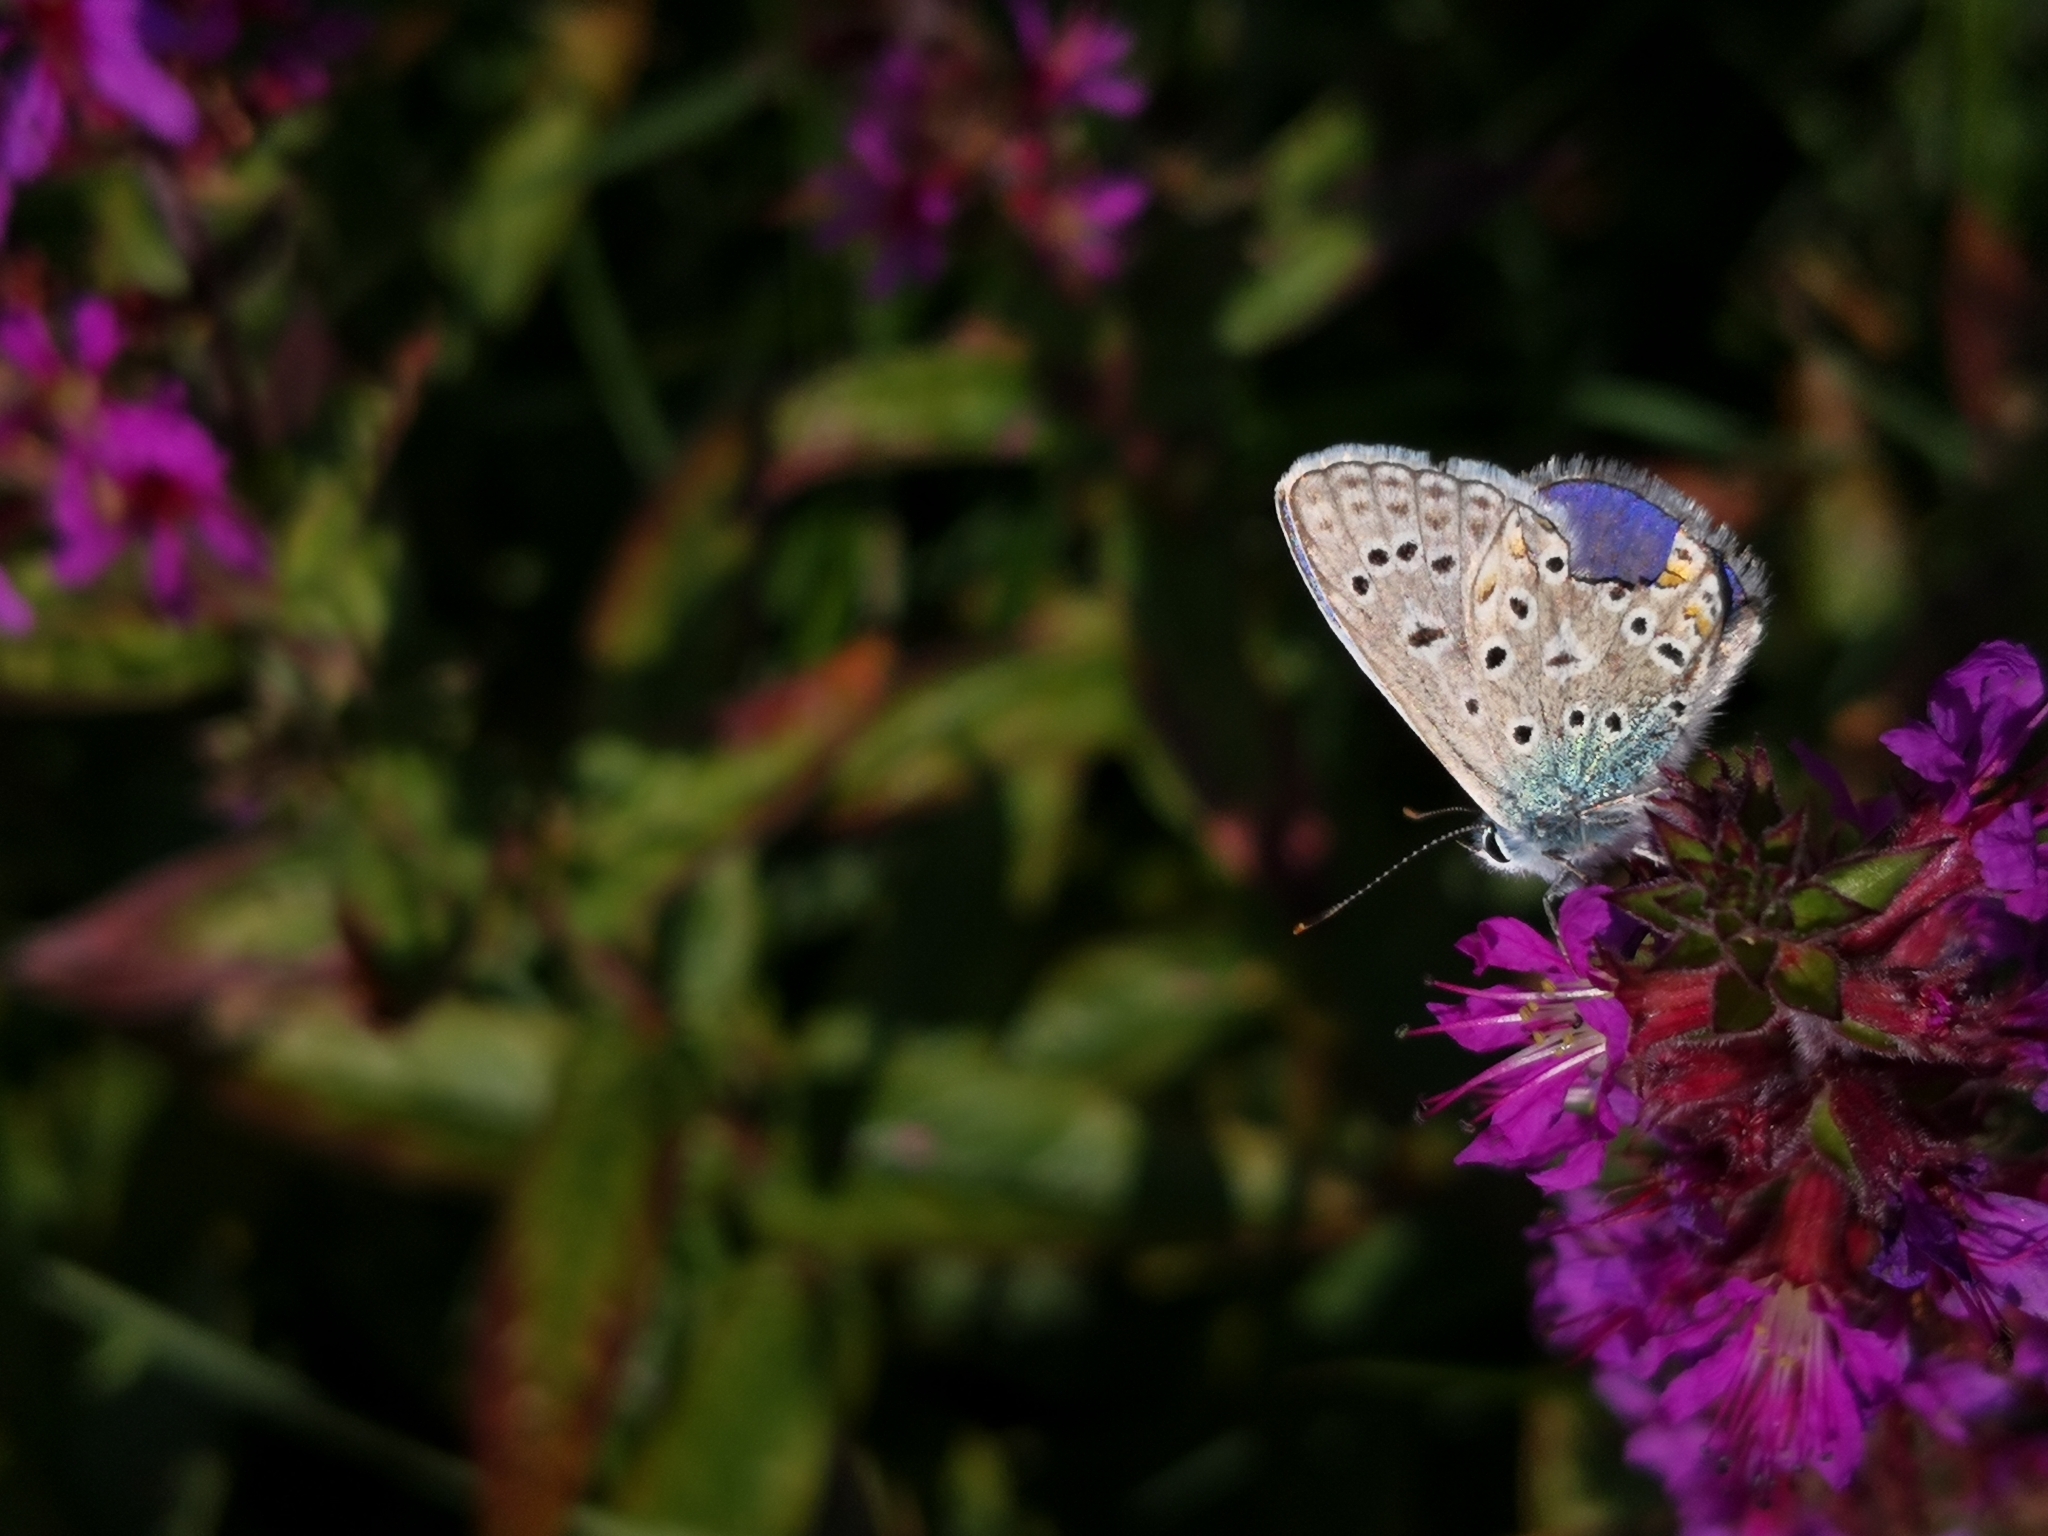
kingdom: Animalia
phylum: Arthropoda
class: Insecta
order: Lepidoptera
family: Lycaenidae
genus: Polyommatus
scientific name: Polyommatus icarus
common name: Common blue
